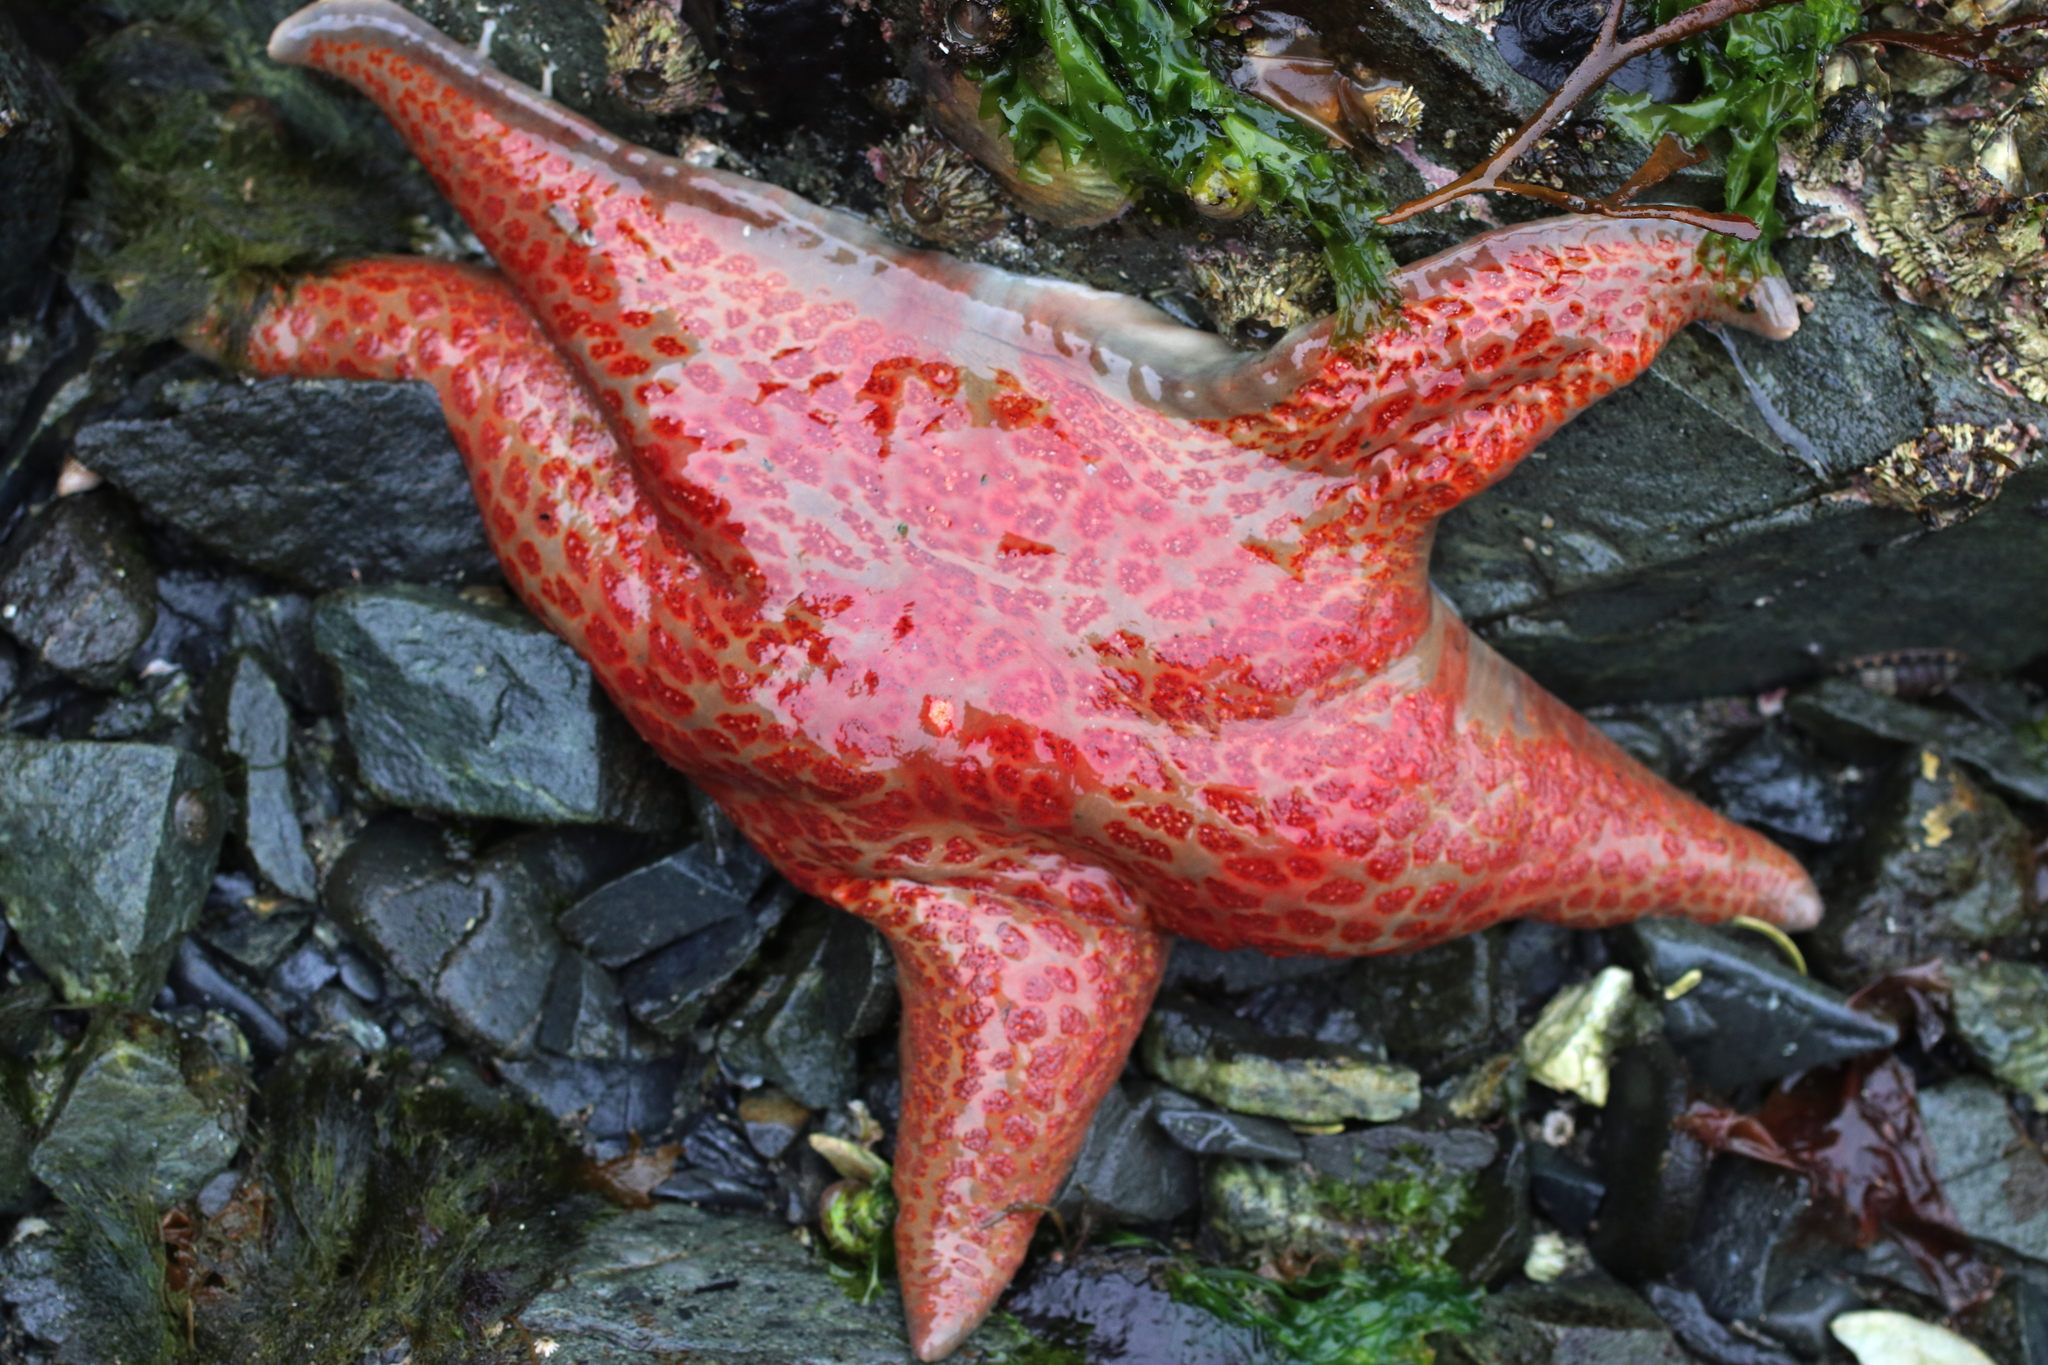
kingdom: Animalia
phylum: Echinodermata
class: Asteroidea
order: Valvatida
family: Asteropseidae
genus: Dermasterias
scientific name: Dermasterias imbricata
